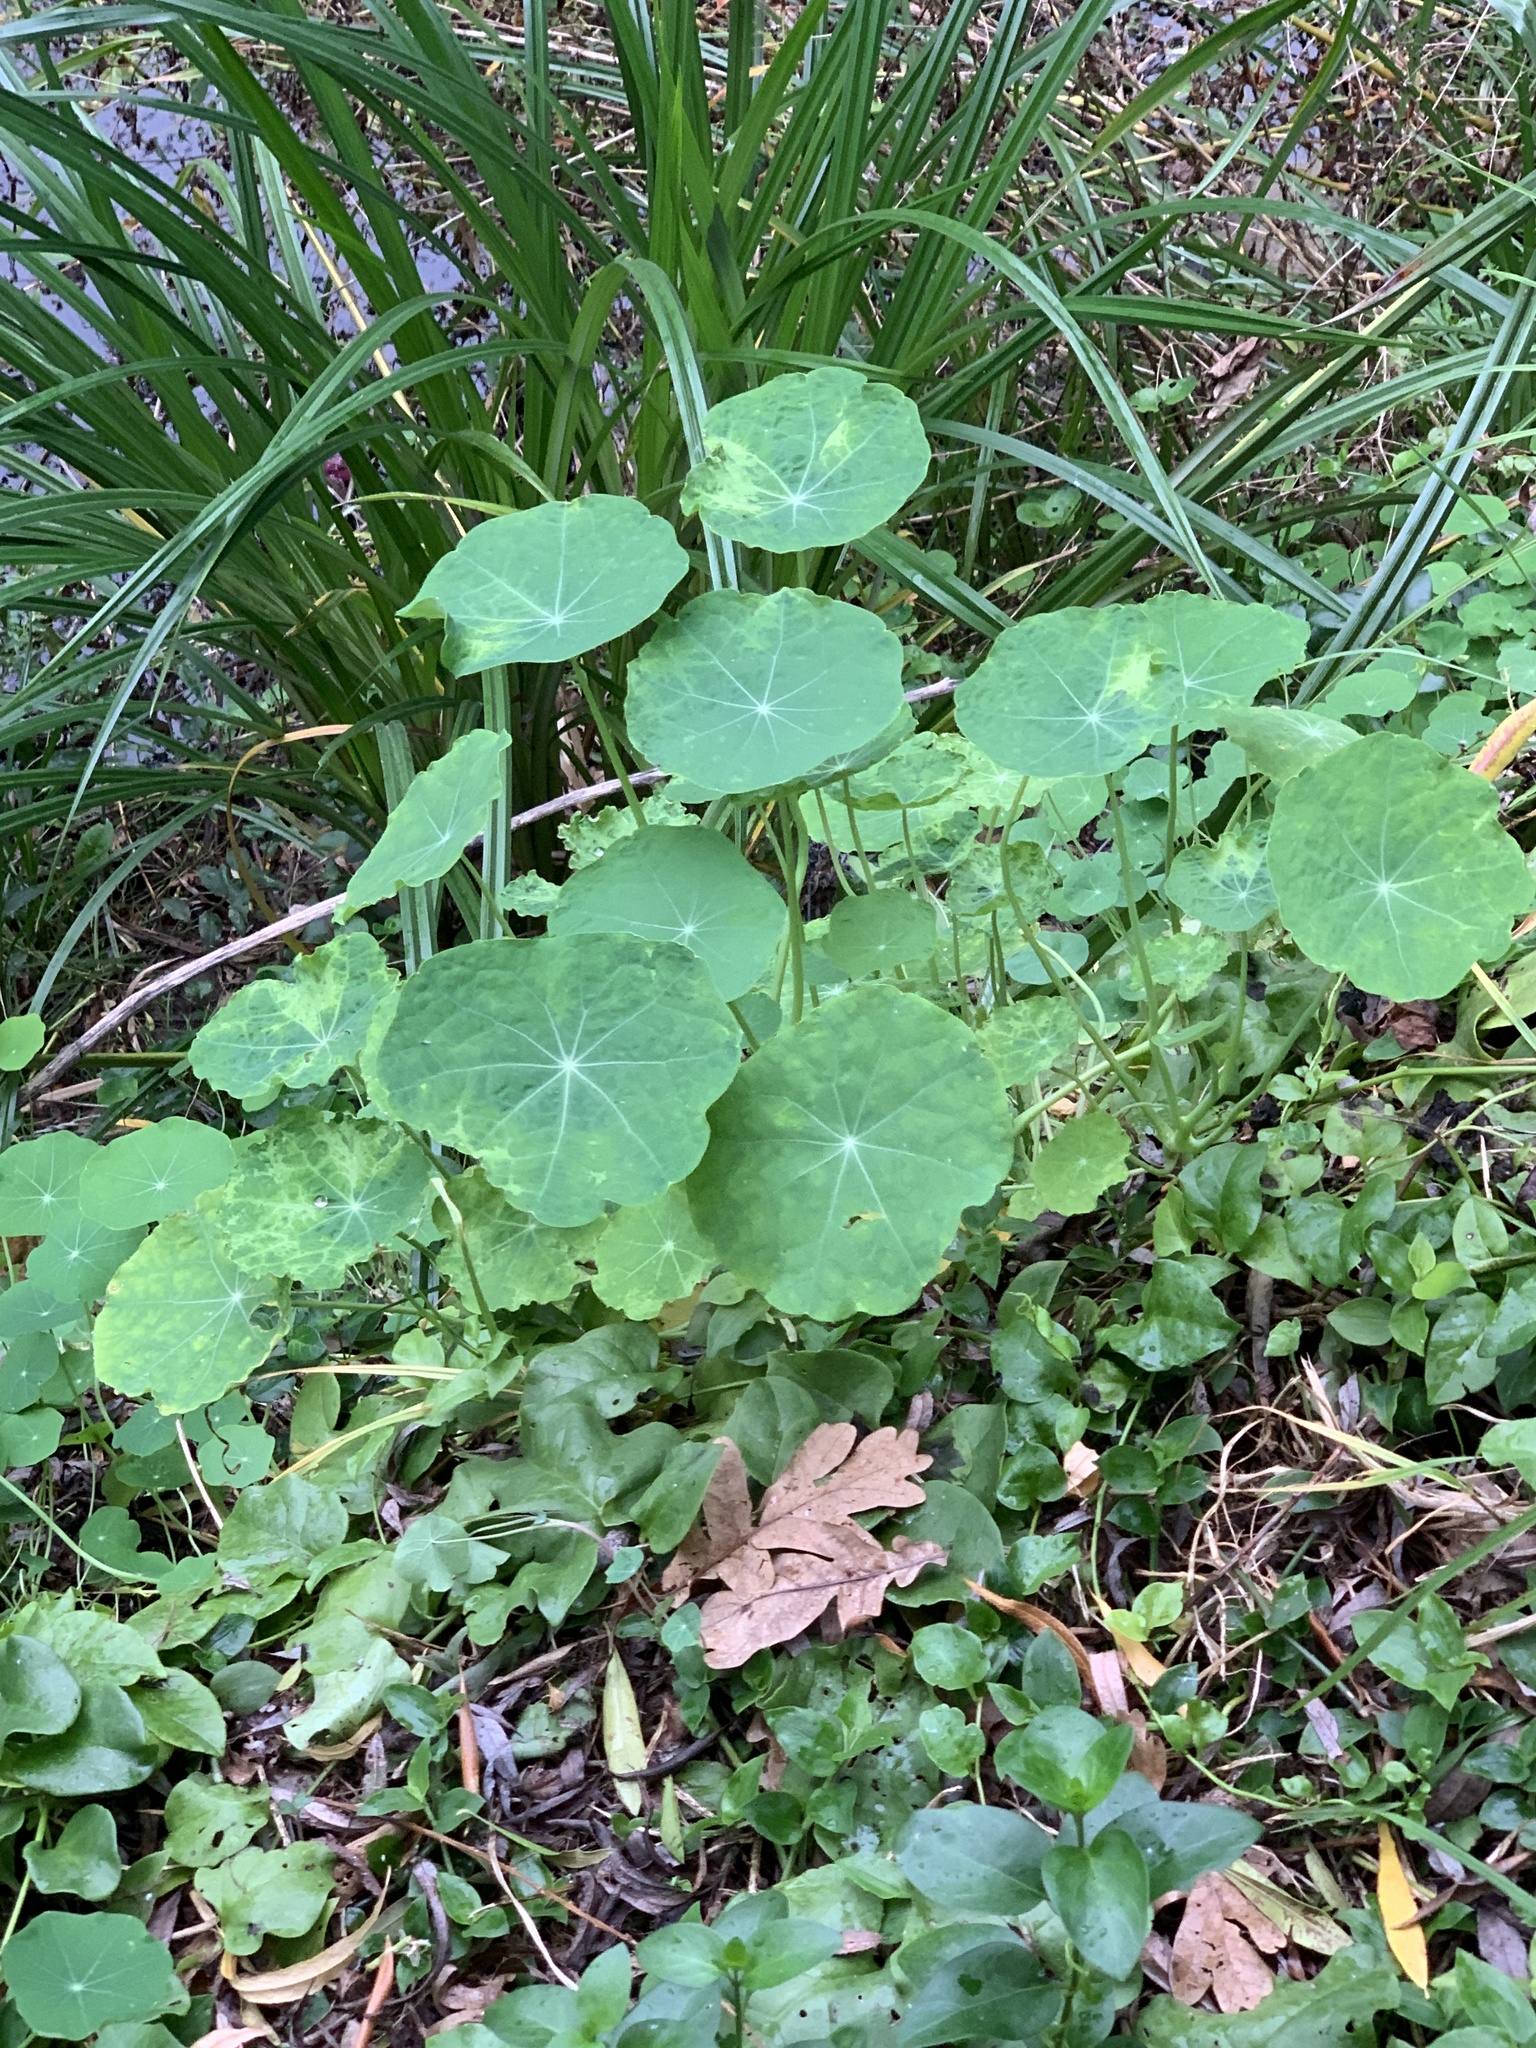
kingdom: Plantae
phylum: Tracheophyta
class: Magnoliopsida
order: Brassicales
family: Tropaeolaceae
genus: Tropaeolum
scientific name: Tropaeolum majus
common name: Nasturtium
